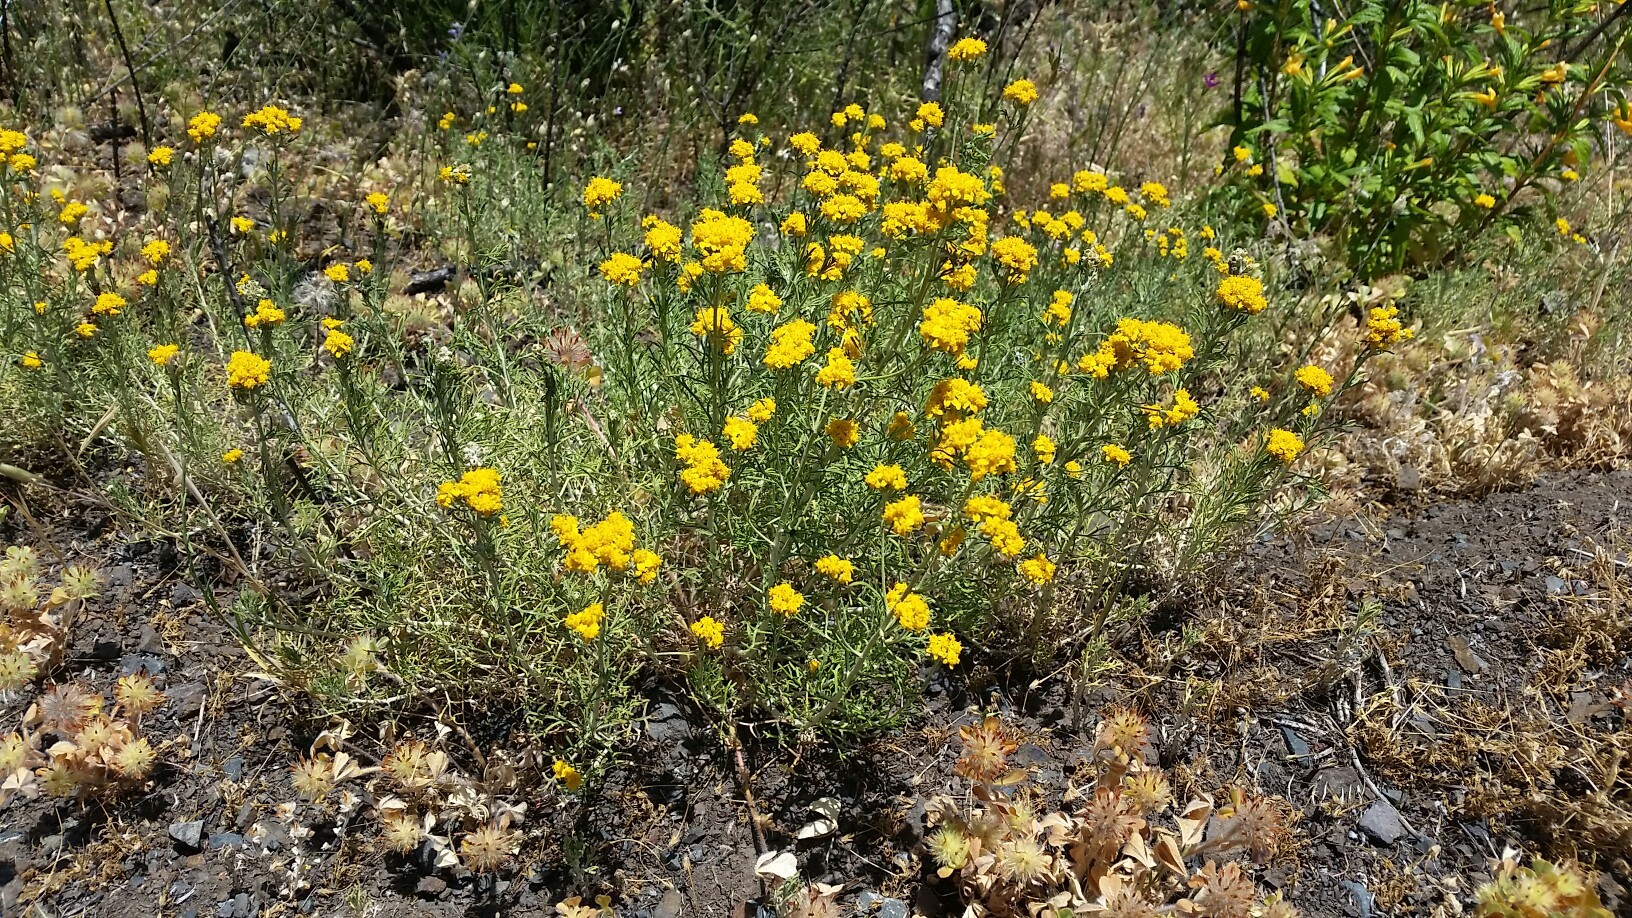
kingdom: Plantae
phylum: Tracheophyta
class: Magnoliopsida
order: Asterales
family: Asteraceae
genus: Eriophyllum
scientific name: Eriophyllum confertiflorum
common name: Golden-yarrow
